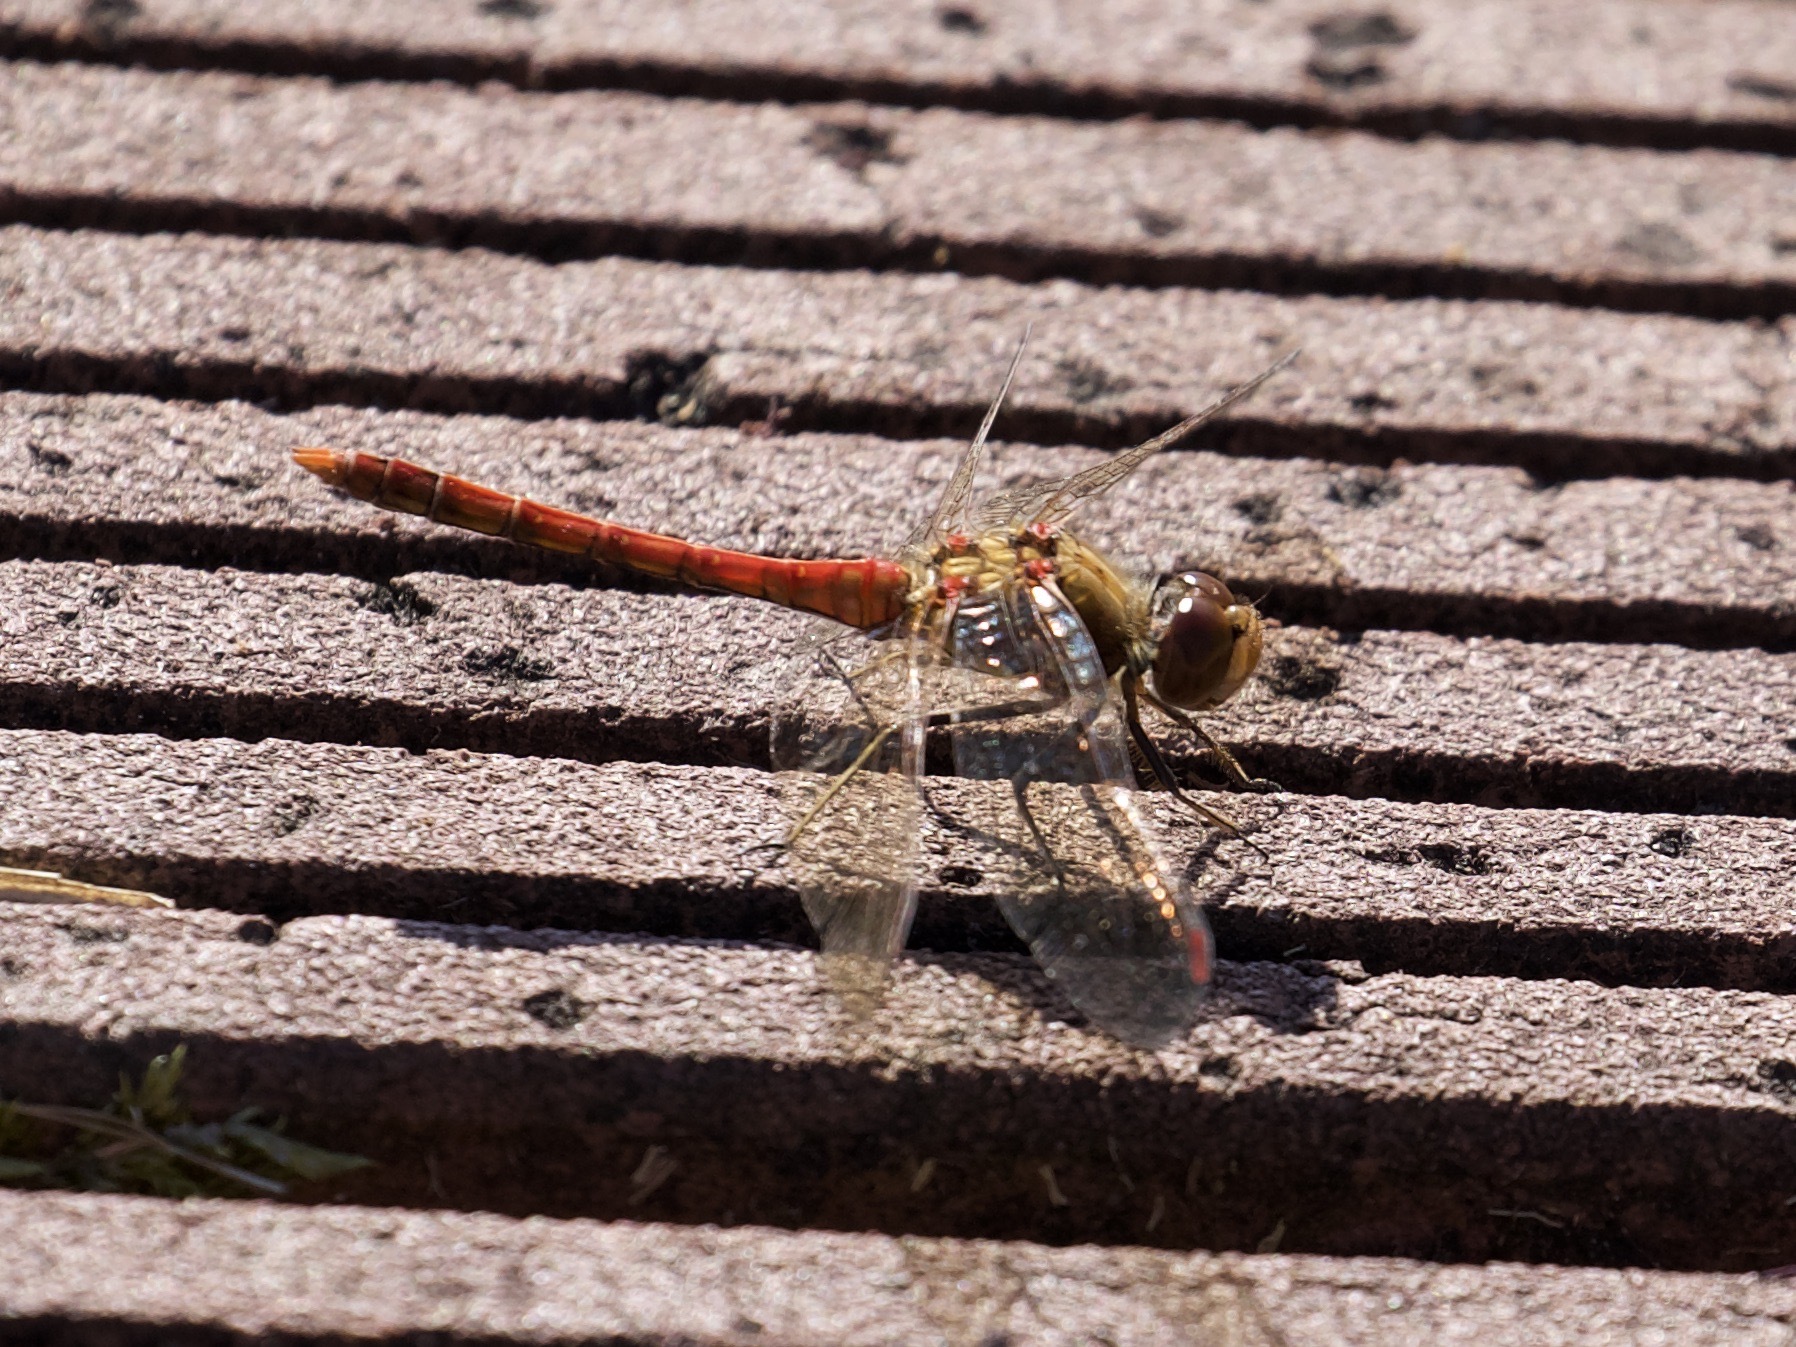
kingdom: Animalia
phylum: Arthropoda
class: Insecta
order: Odonata
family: Libellulidae
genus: Sympetrum
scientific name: Sympetrum striolatum
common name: Common darter
